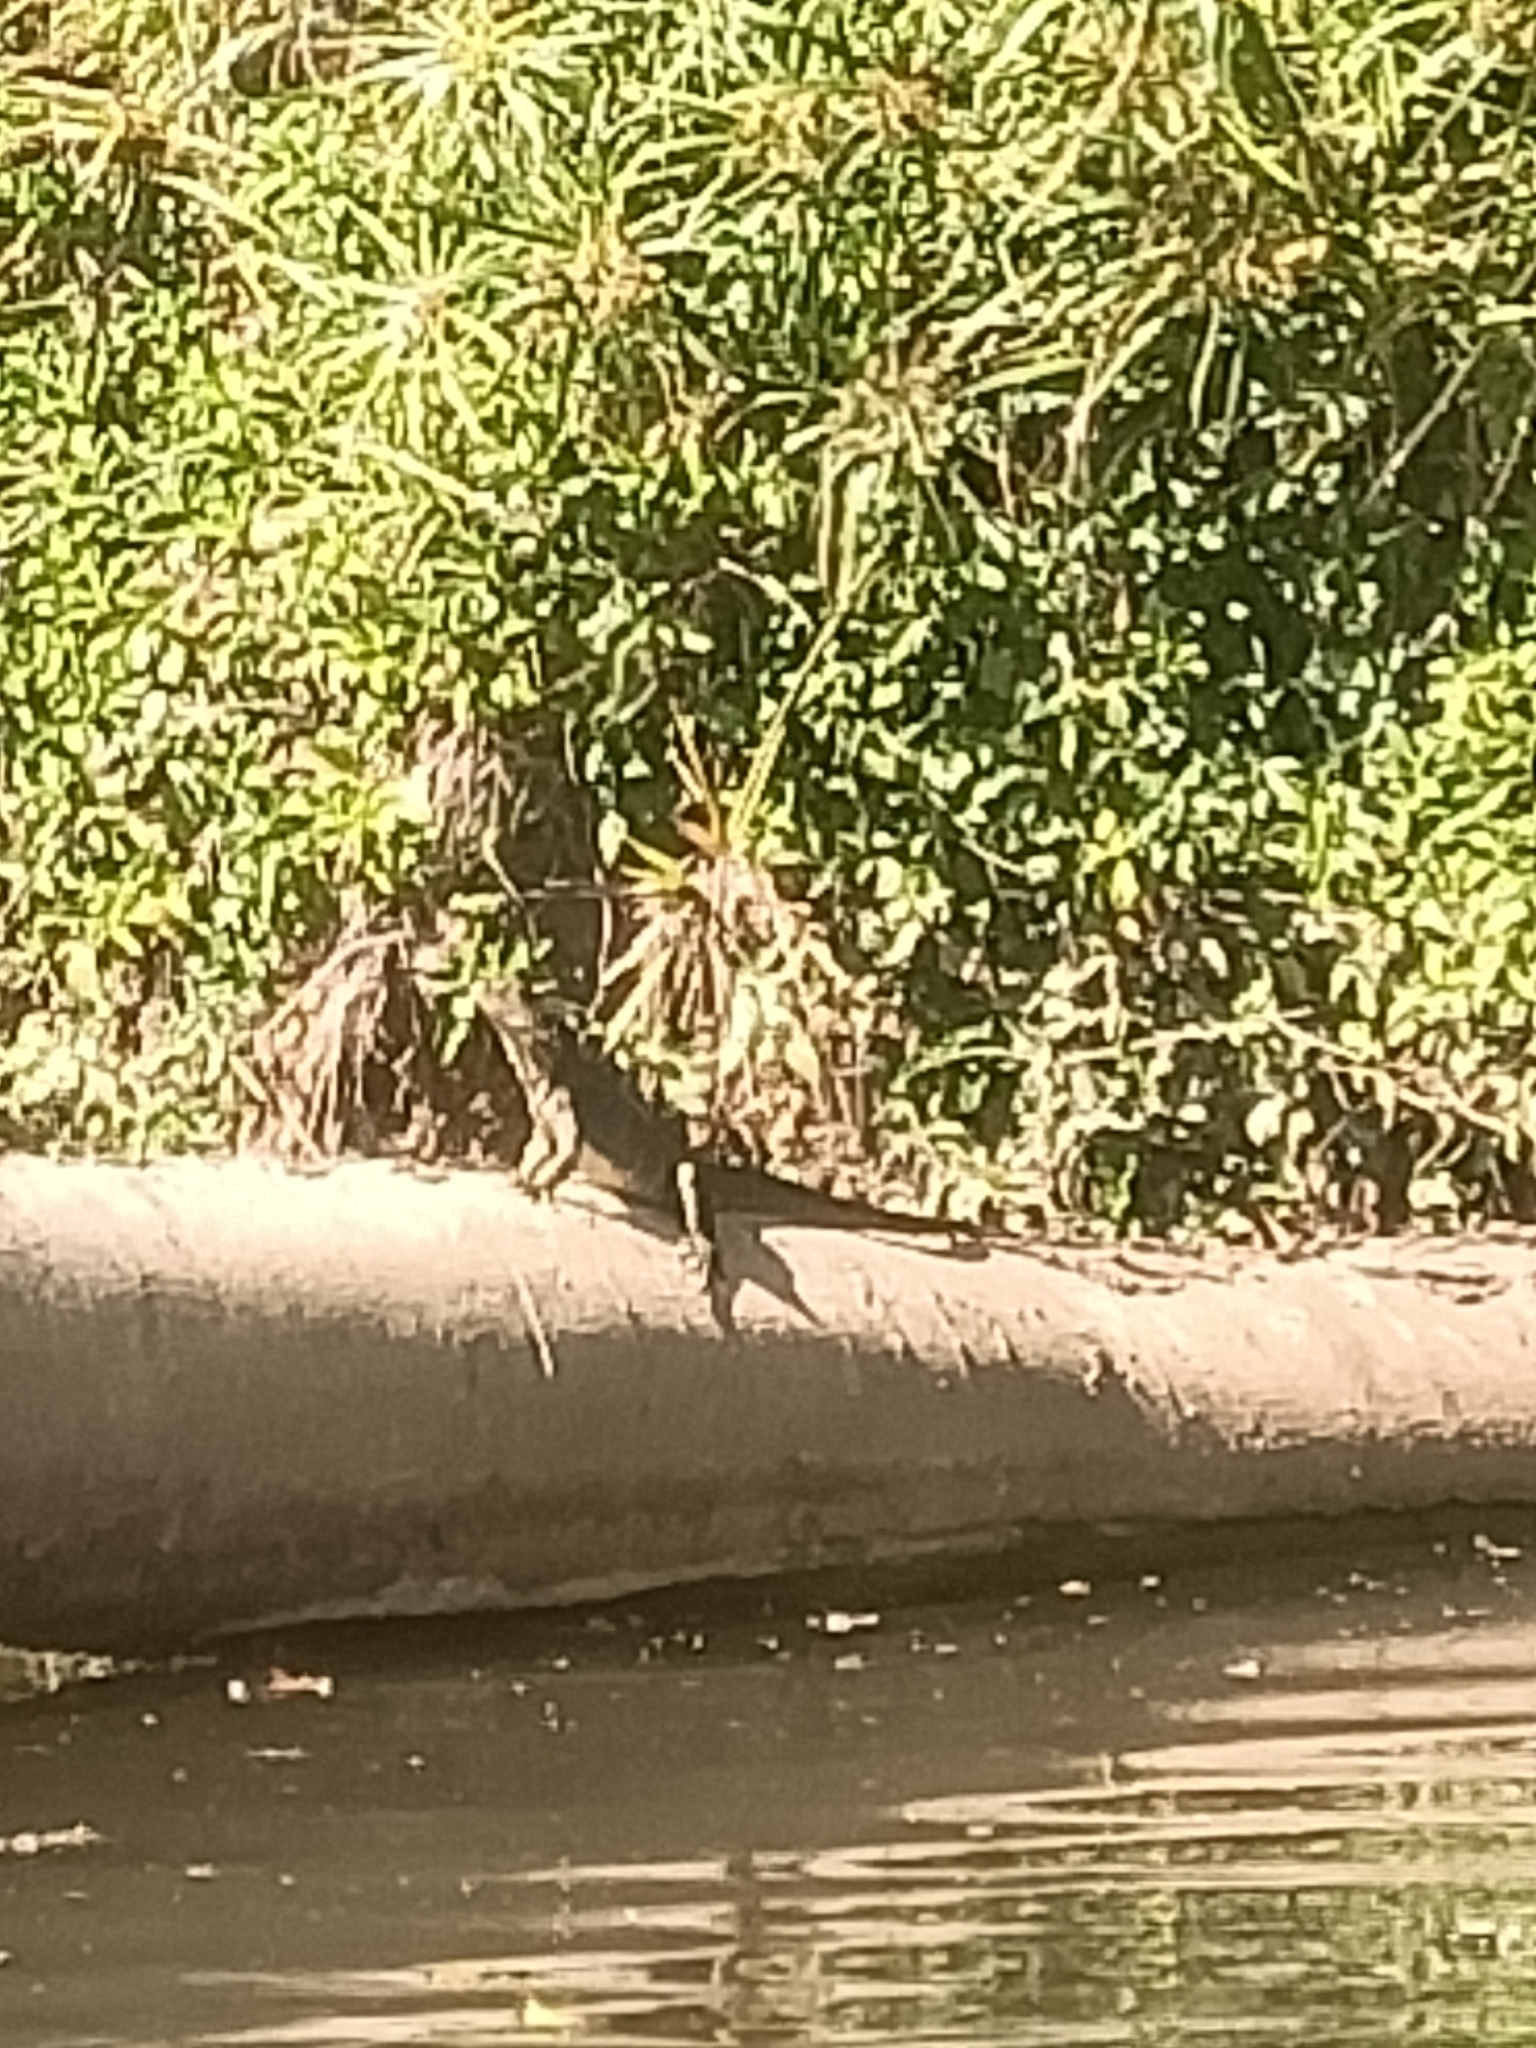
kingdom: Animalia
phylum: Chordata
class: Squamata
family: Agamidae
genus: Intellagama
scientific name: Intellagama lesueurii
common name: Eastern water dragon
